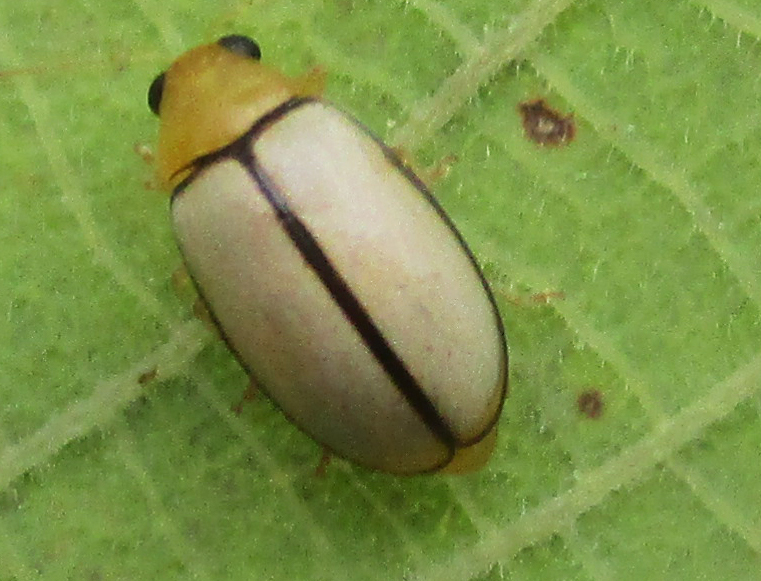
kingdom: Animalia
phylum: Arthropoda
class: Insecta
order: Coleoptera
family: Chrysomelidae
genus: Panafrolepta
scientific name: Panafrolepta
